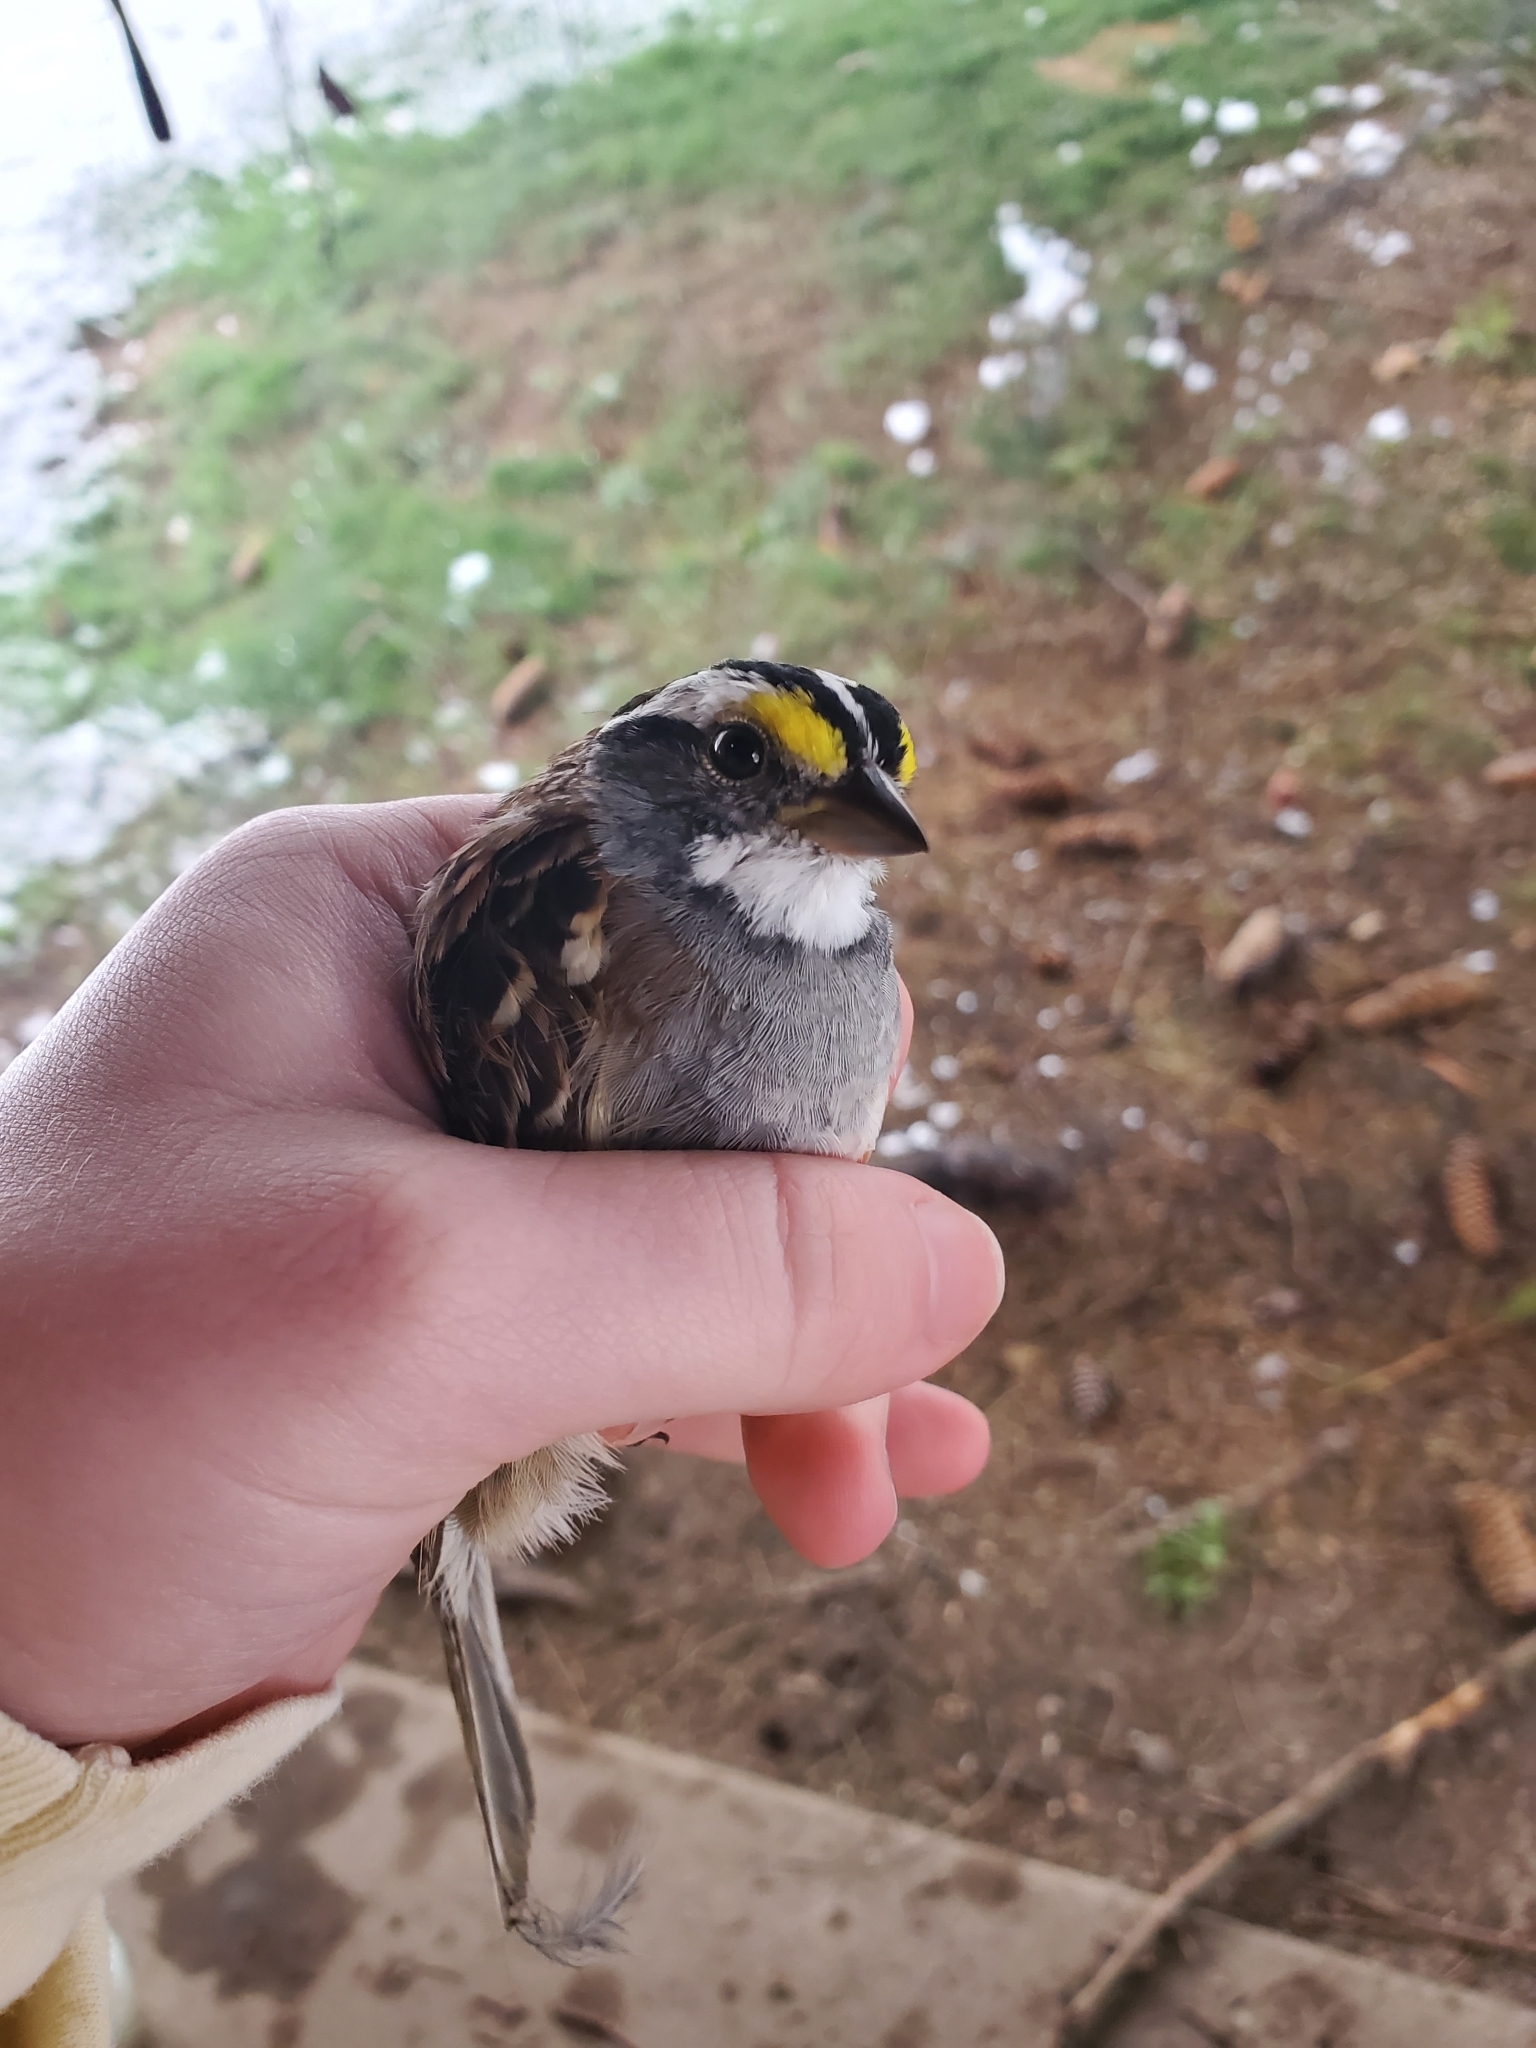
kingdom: Animalia
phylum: Chordata
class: Aves
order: Passeriformes
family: Passerellidae
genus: Zonotrichia
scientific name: Zonotrichia albicollis
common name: White-throated sparrow
